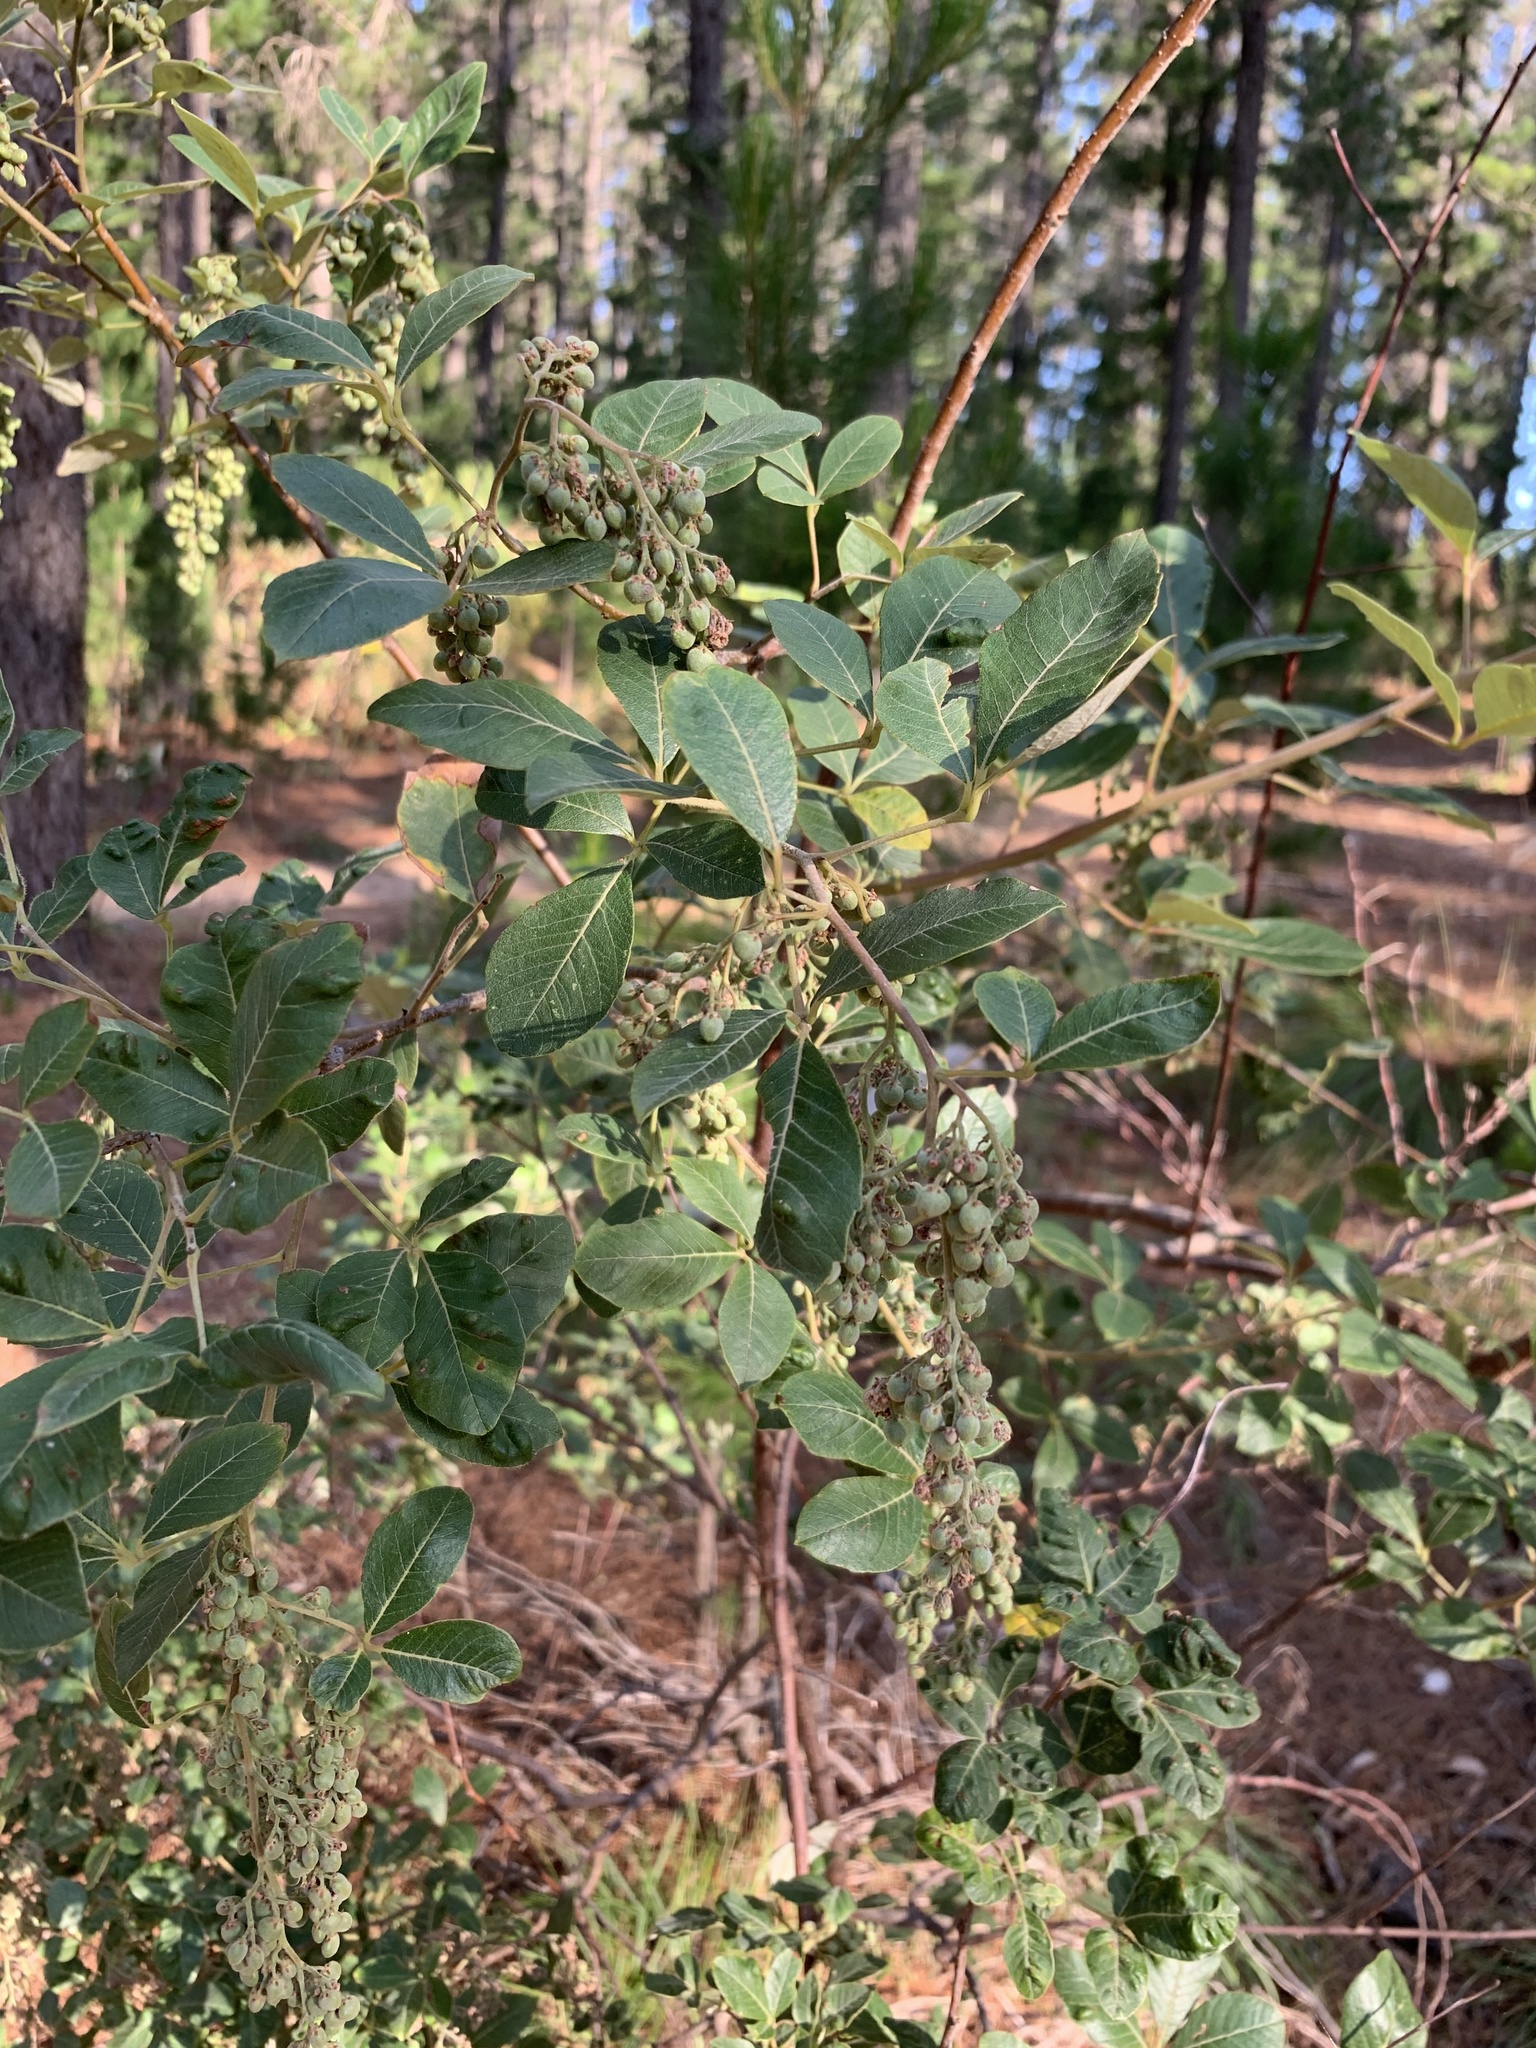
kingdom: Plantae
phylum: Tracheophyta
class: Magnoliopsida
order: Sapindales
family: Anacardiaceae
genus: Searsia
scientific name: Searsia tomentosa
